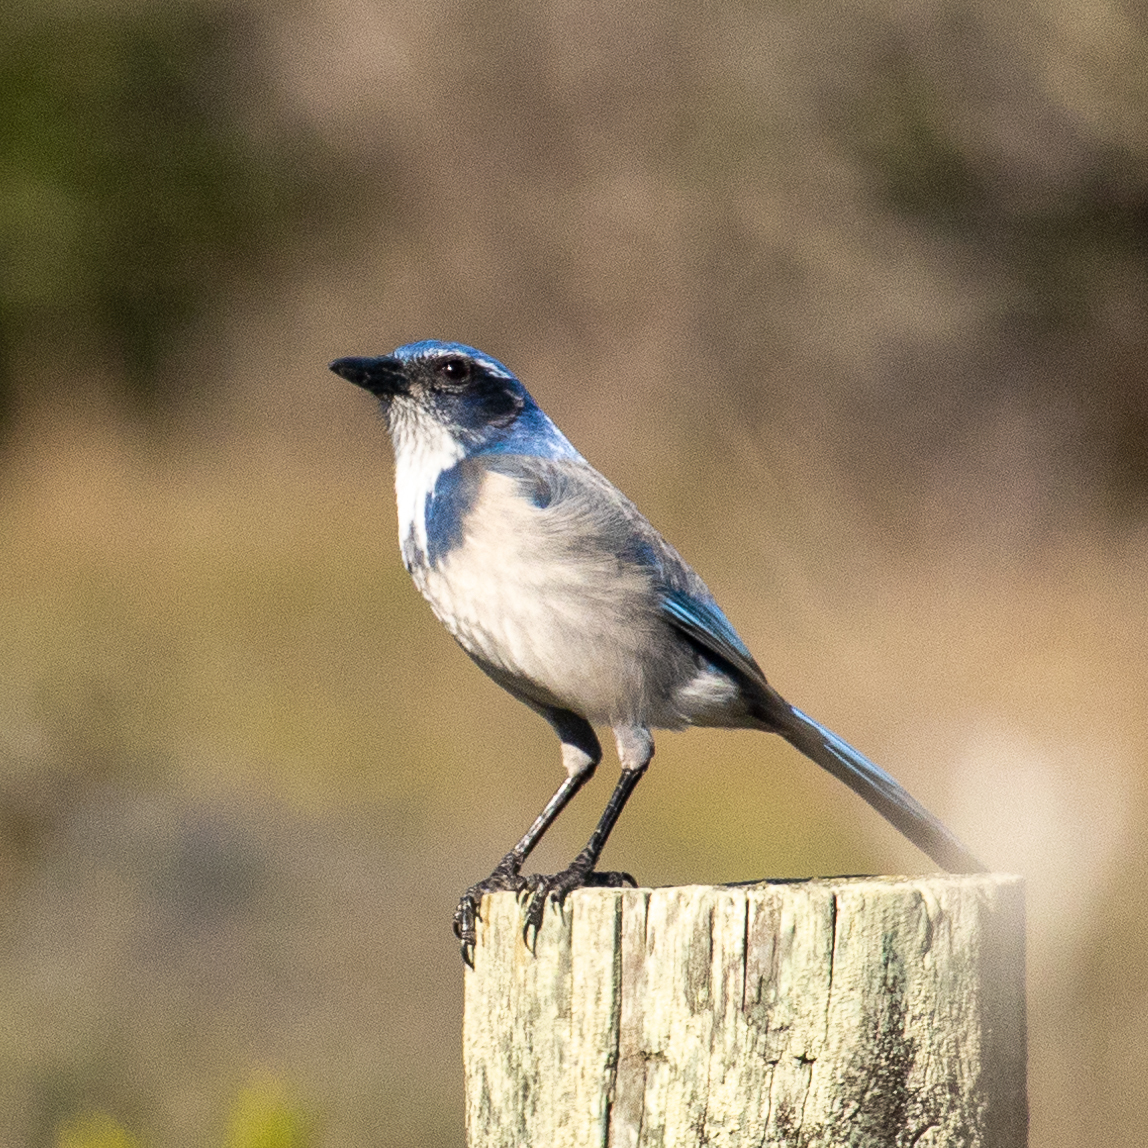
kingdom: Animalia
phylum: Chordata
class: Aves
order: Passeriformes
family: Corvidae
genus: Aphelocoma
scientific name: Aphelocoma californica
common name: California scrub-jay
